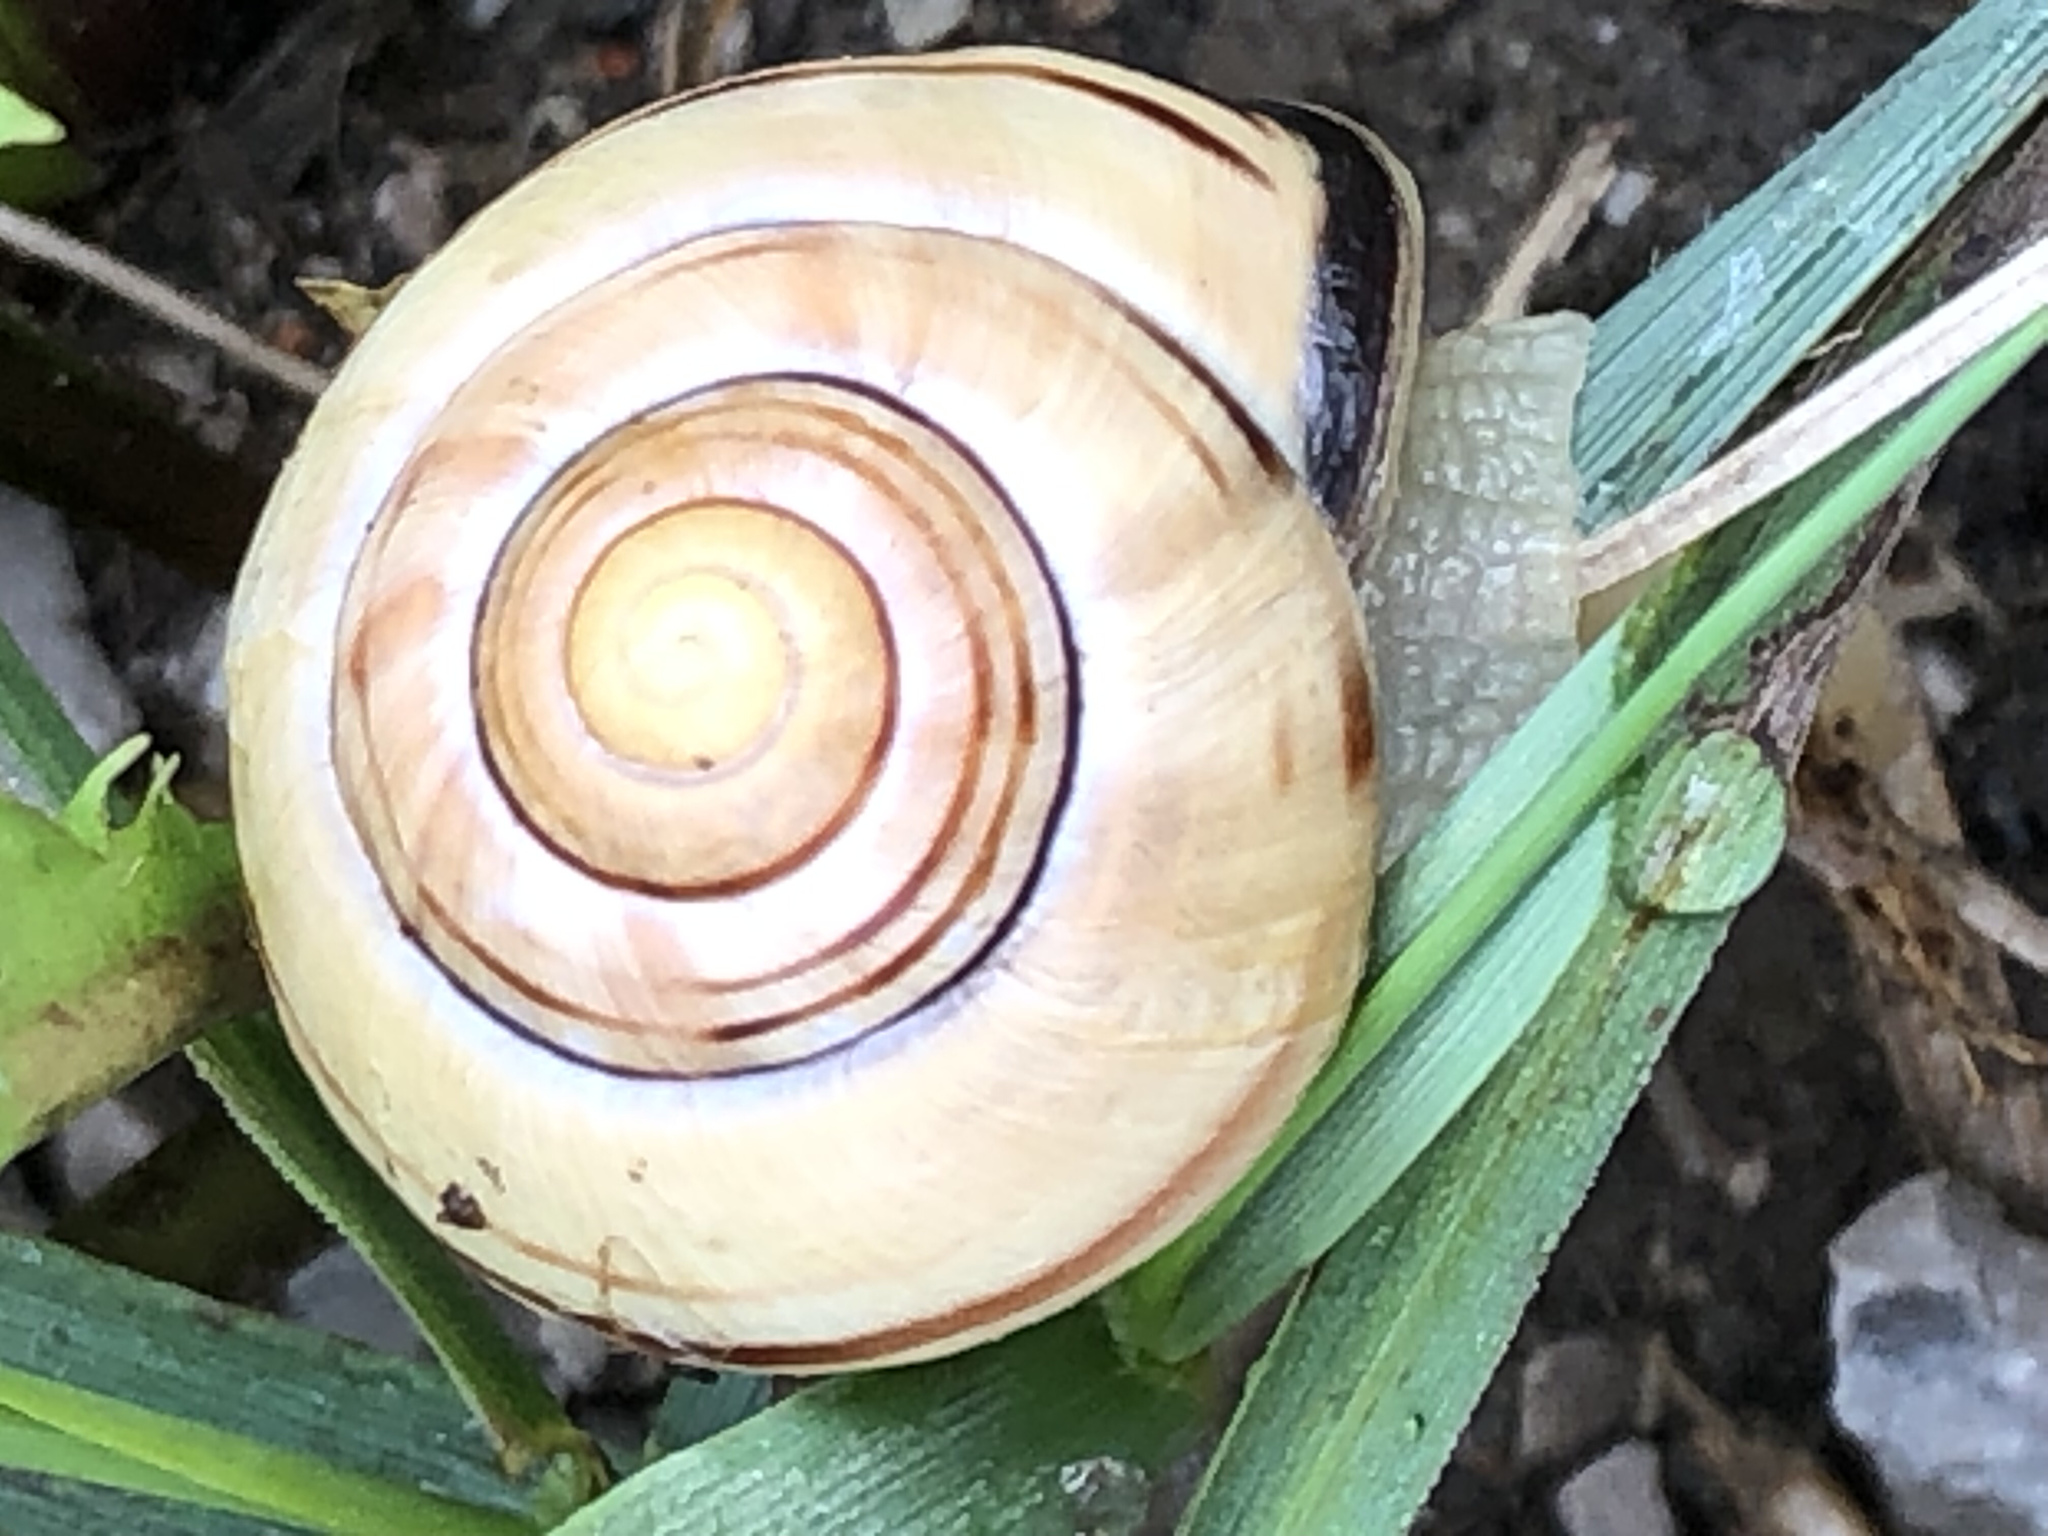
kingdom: Animalia
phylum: Mollusca
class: Gastropoda
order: Stylommatophora
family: Helicidae
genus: Cepaea
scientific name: Cepaea nemoralis
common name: Grovesnail
